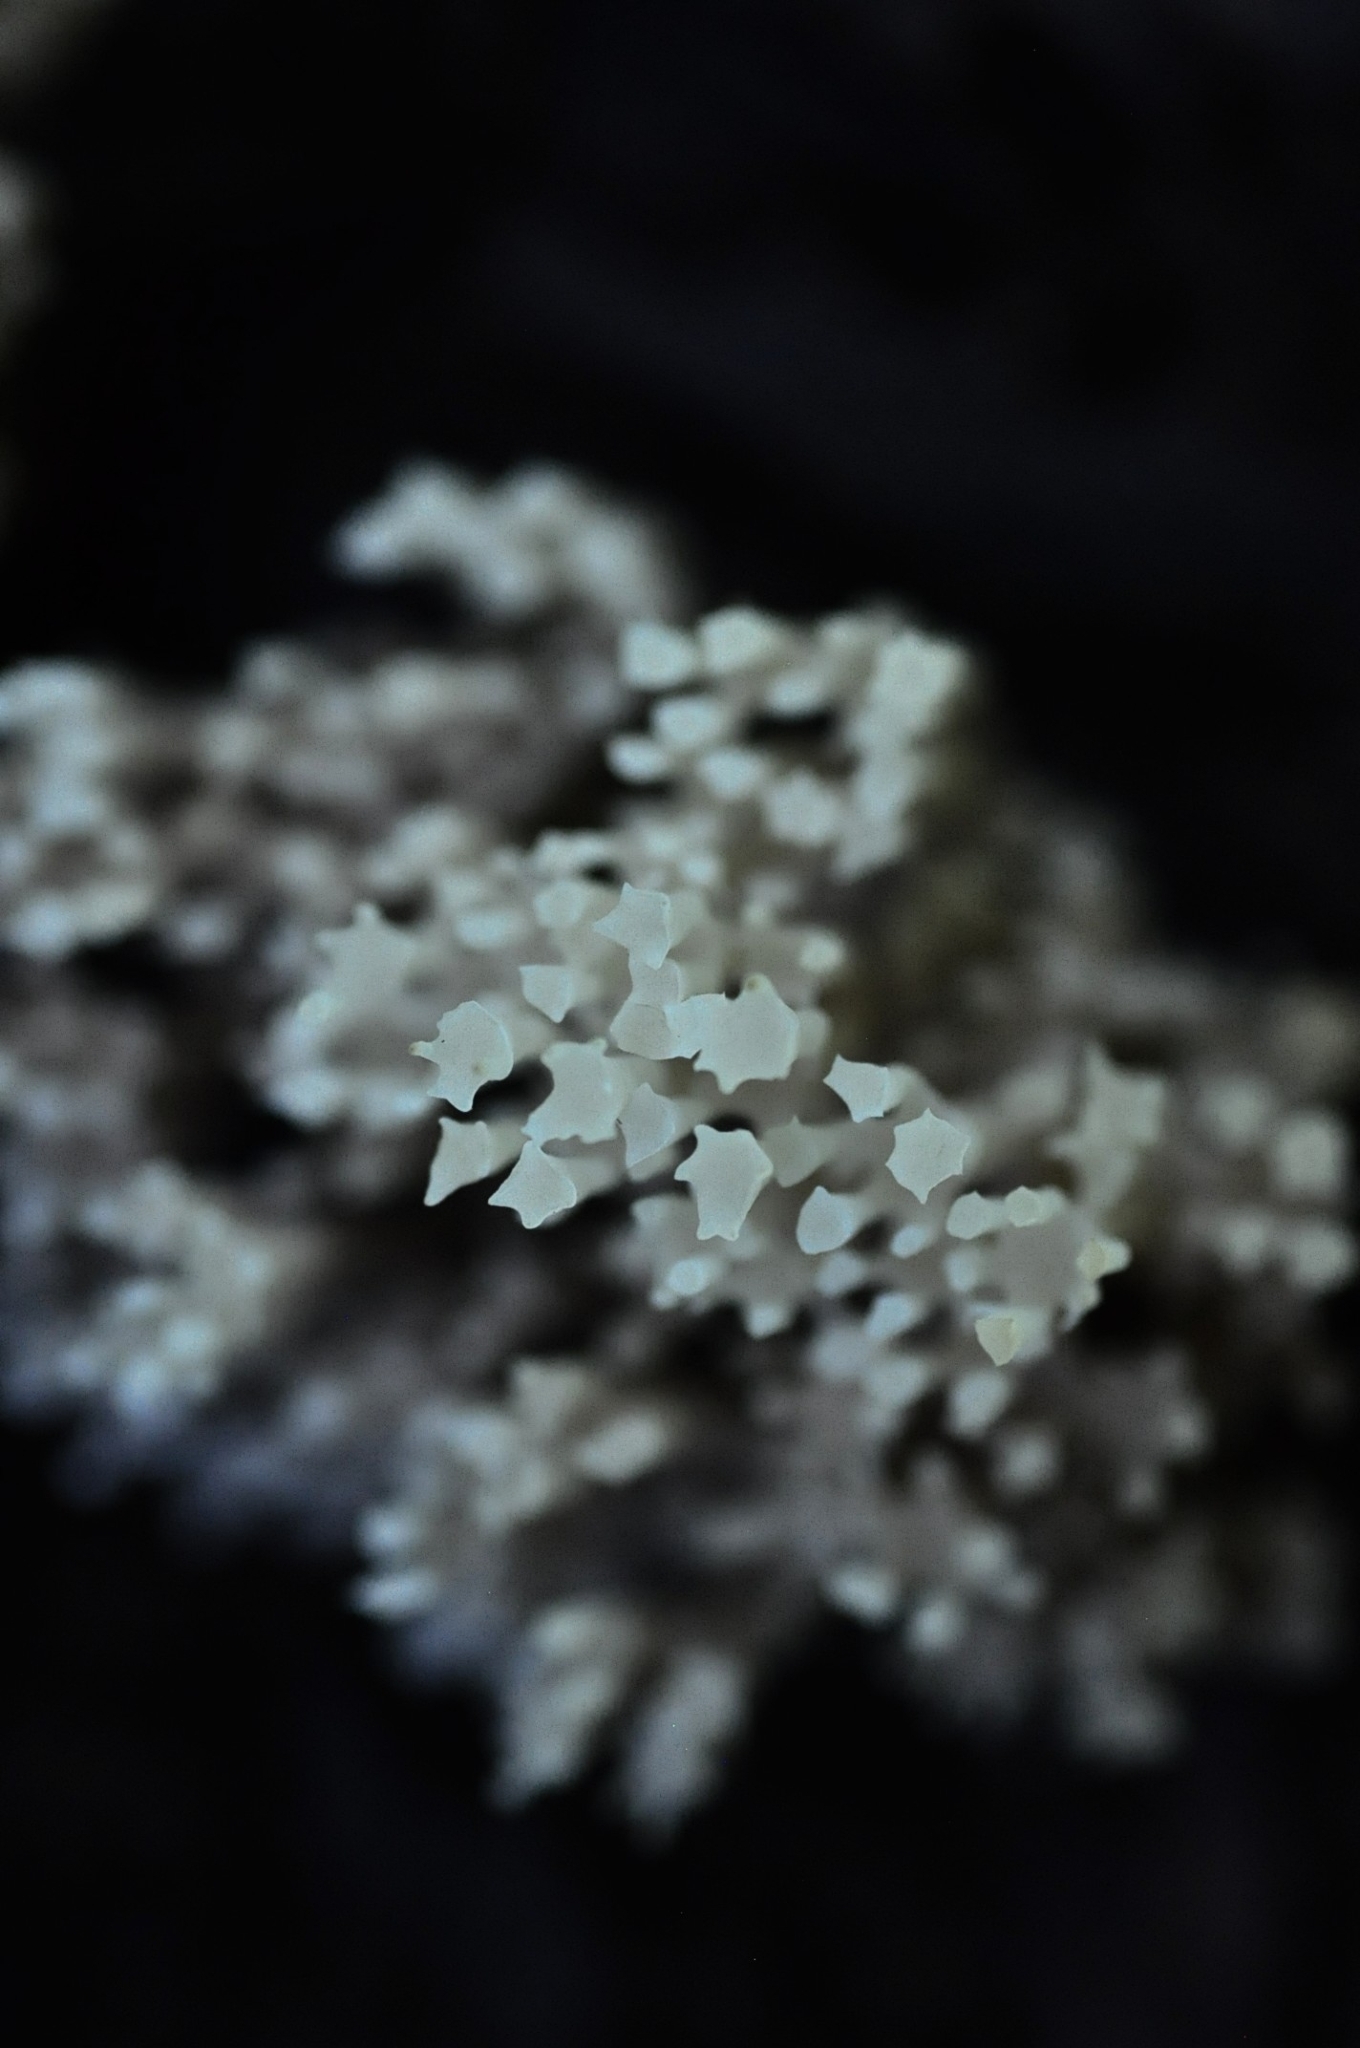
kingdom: Fungi
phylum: Basidiomycota
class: Agaricomycetes
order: Russulales
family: Auriscalpiaceae
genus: Artomyces
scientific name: Artomyces pyxidatus
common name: Crown-tipped coral fungus
